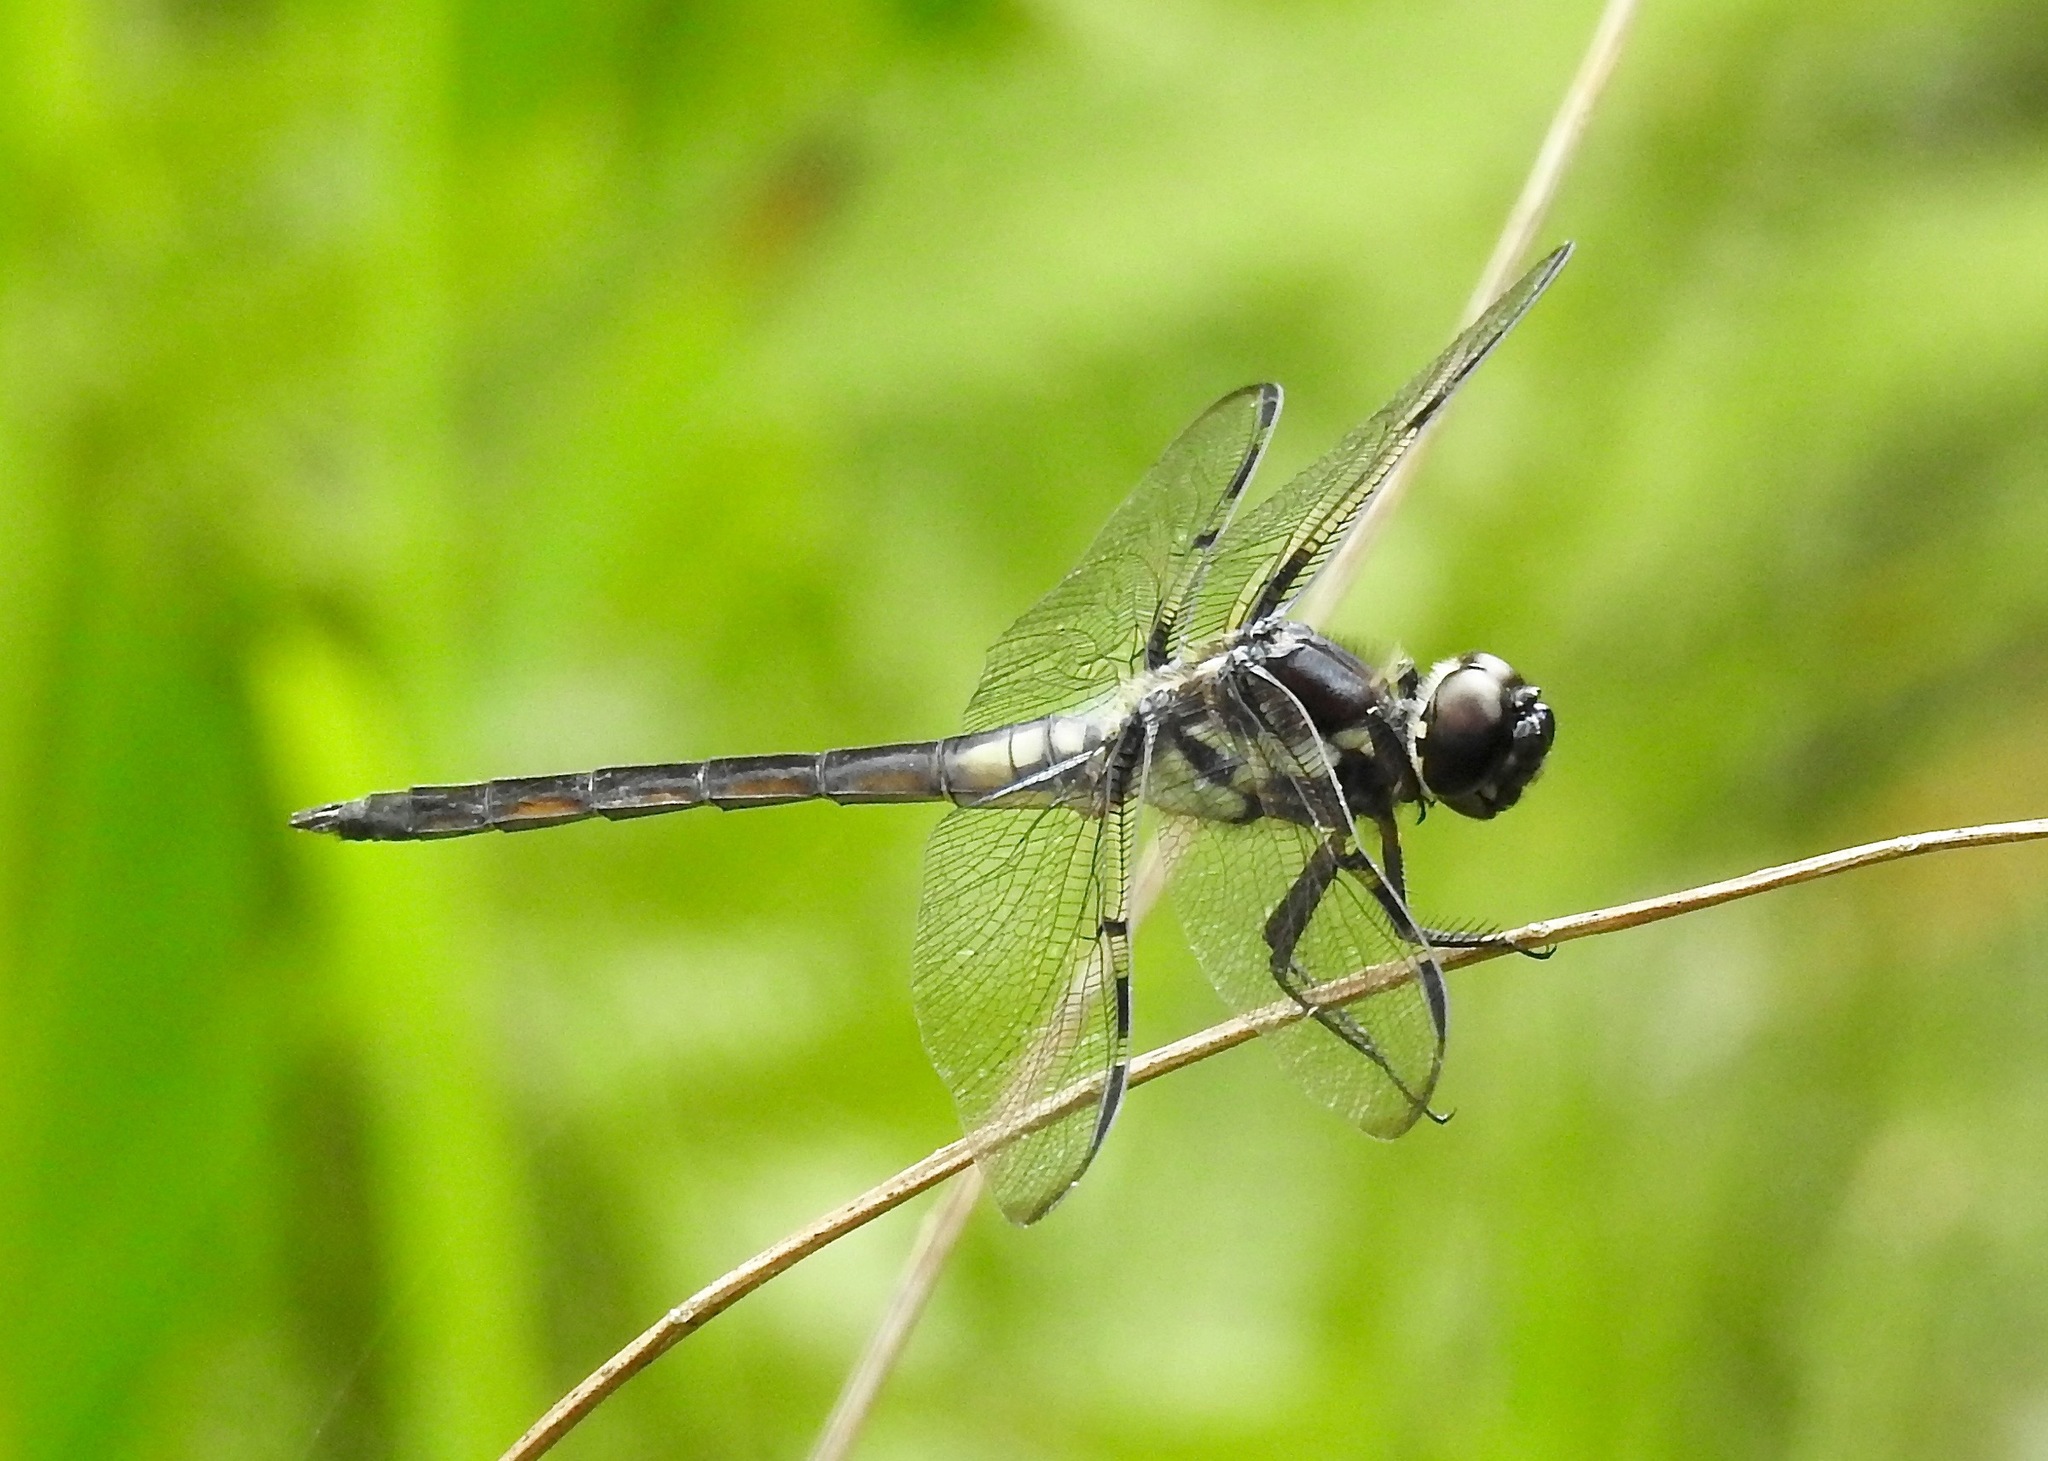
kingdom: Animalia
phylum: Arthropoda
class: Insecta
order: Odonata
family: Libellulidae
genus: Libellula
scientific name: Libellula axilena
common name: Bar-winged skimmer
